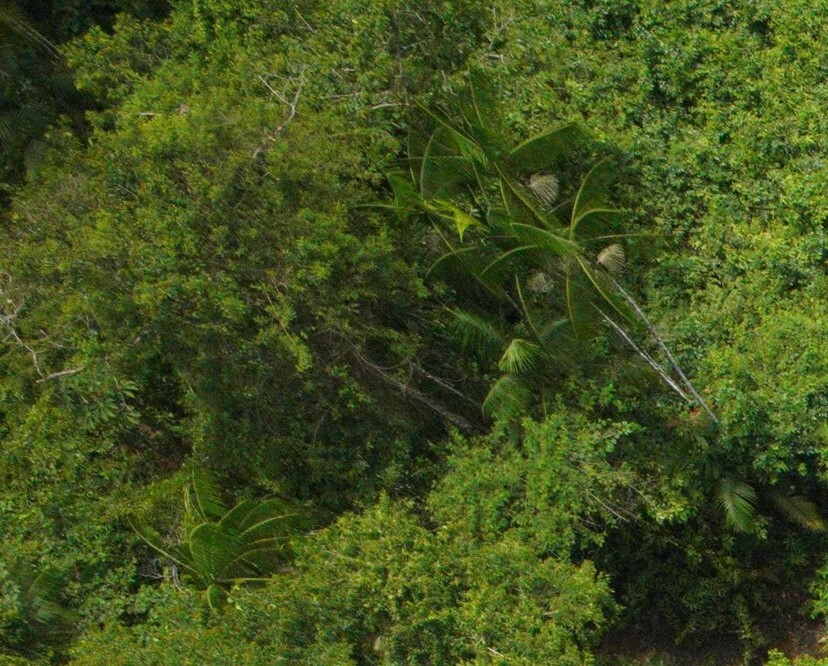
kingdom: Plantae
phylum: Tracheophyta
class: Liliopsida
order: Arecales
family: Arecaceae
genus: Euterpe
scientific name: Euterpe oleracea
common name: Assai palm
